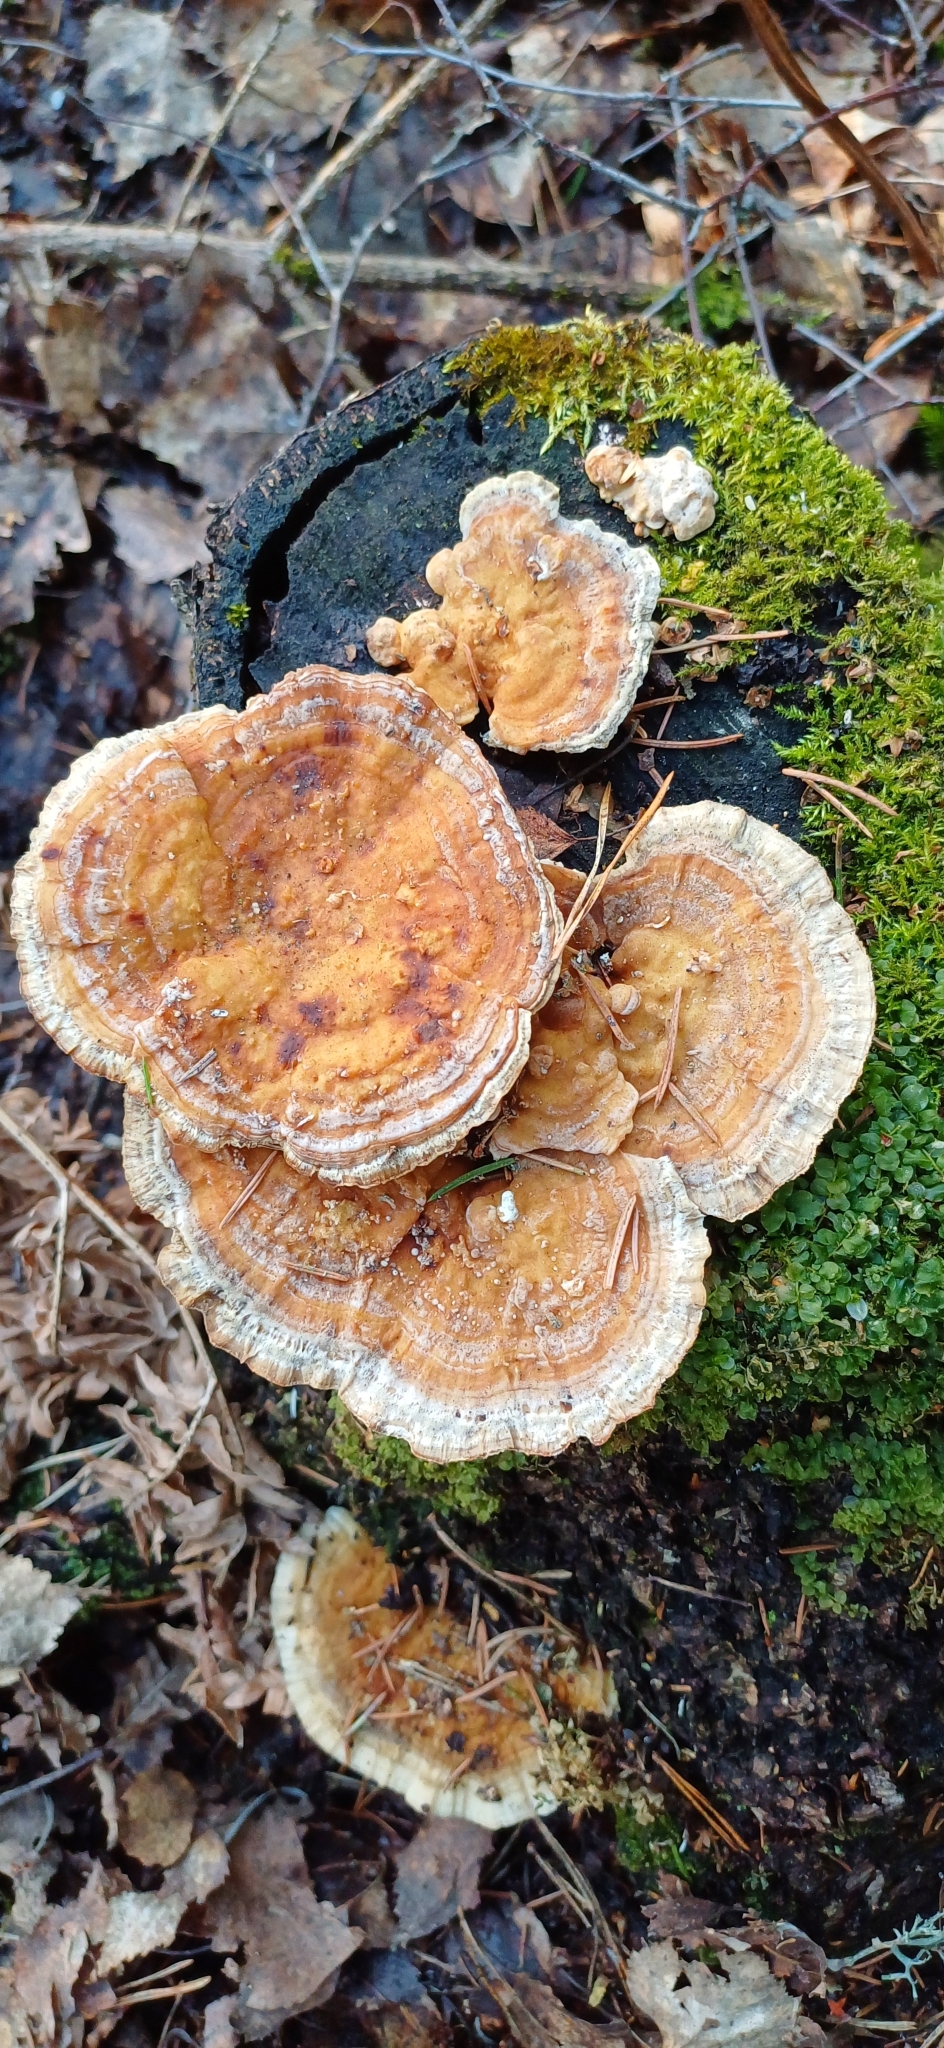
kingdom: Fungi
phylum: Basidiomycota
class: Agaricomycetes
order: Polyporales
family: Polyporaceae
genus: Trametes
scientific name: Trametes ochracea
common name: Ochre bracket
